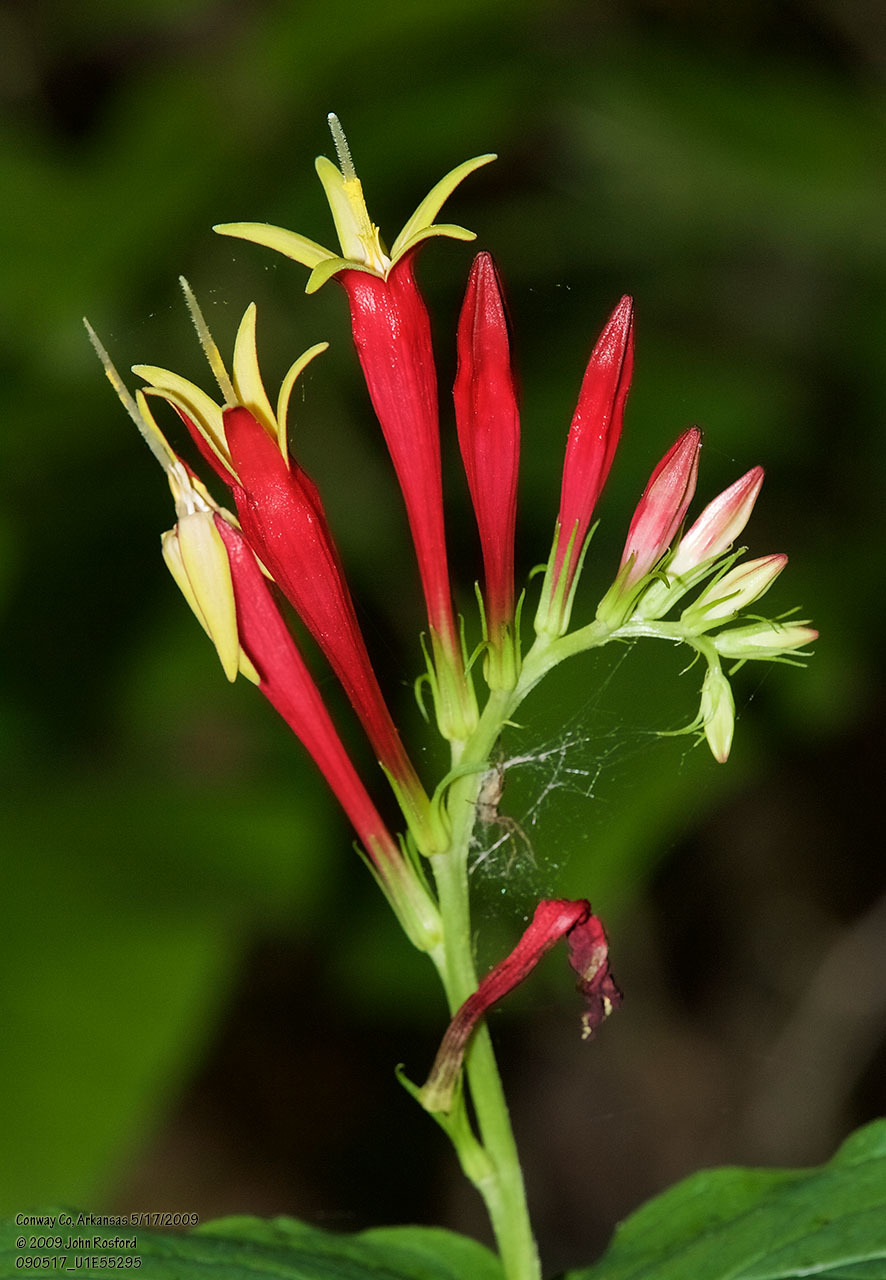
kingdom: Plantae
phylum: Tracheophyta
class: Magnoliopsida
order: Gentianales
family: Loganiaceae
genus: Spigelia
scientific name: Spigelia marilandica
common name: Indian-pink
